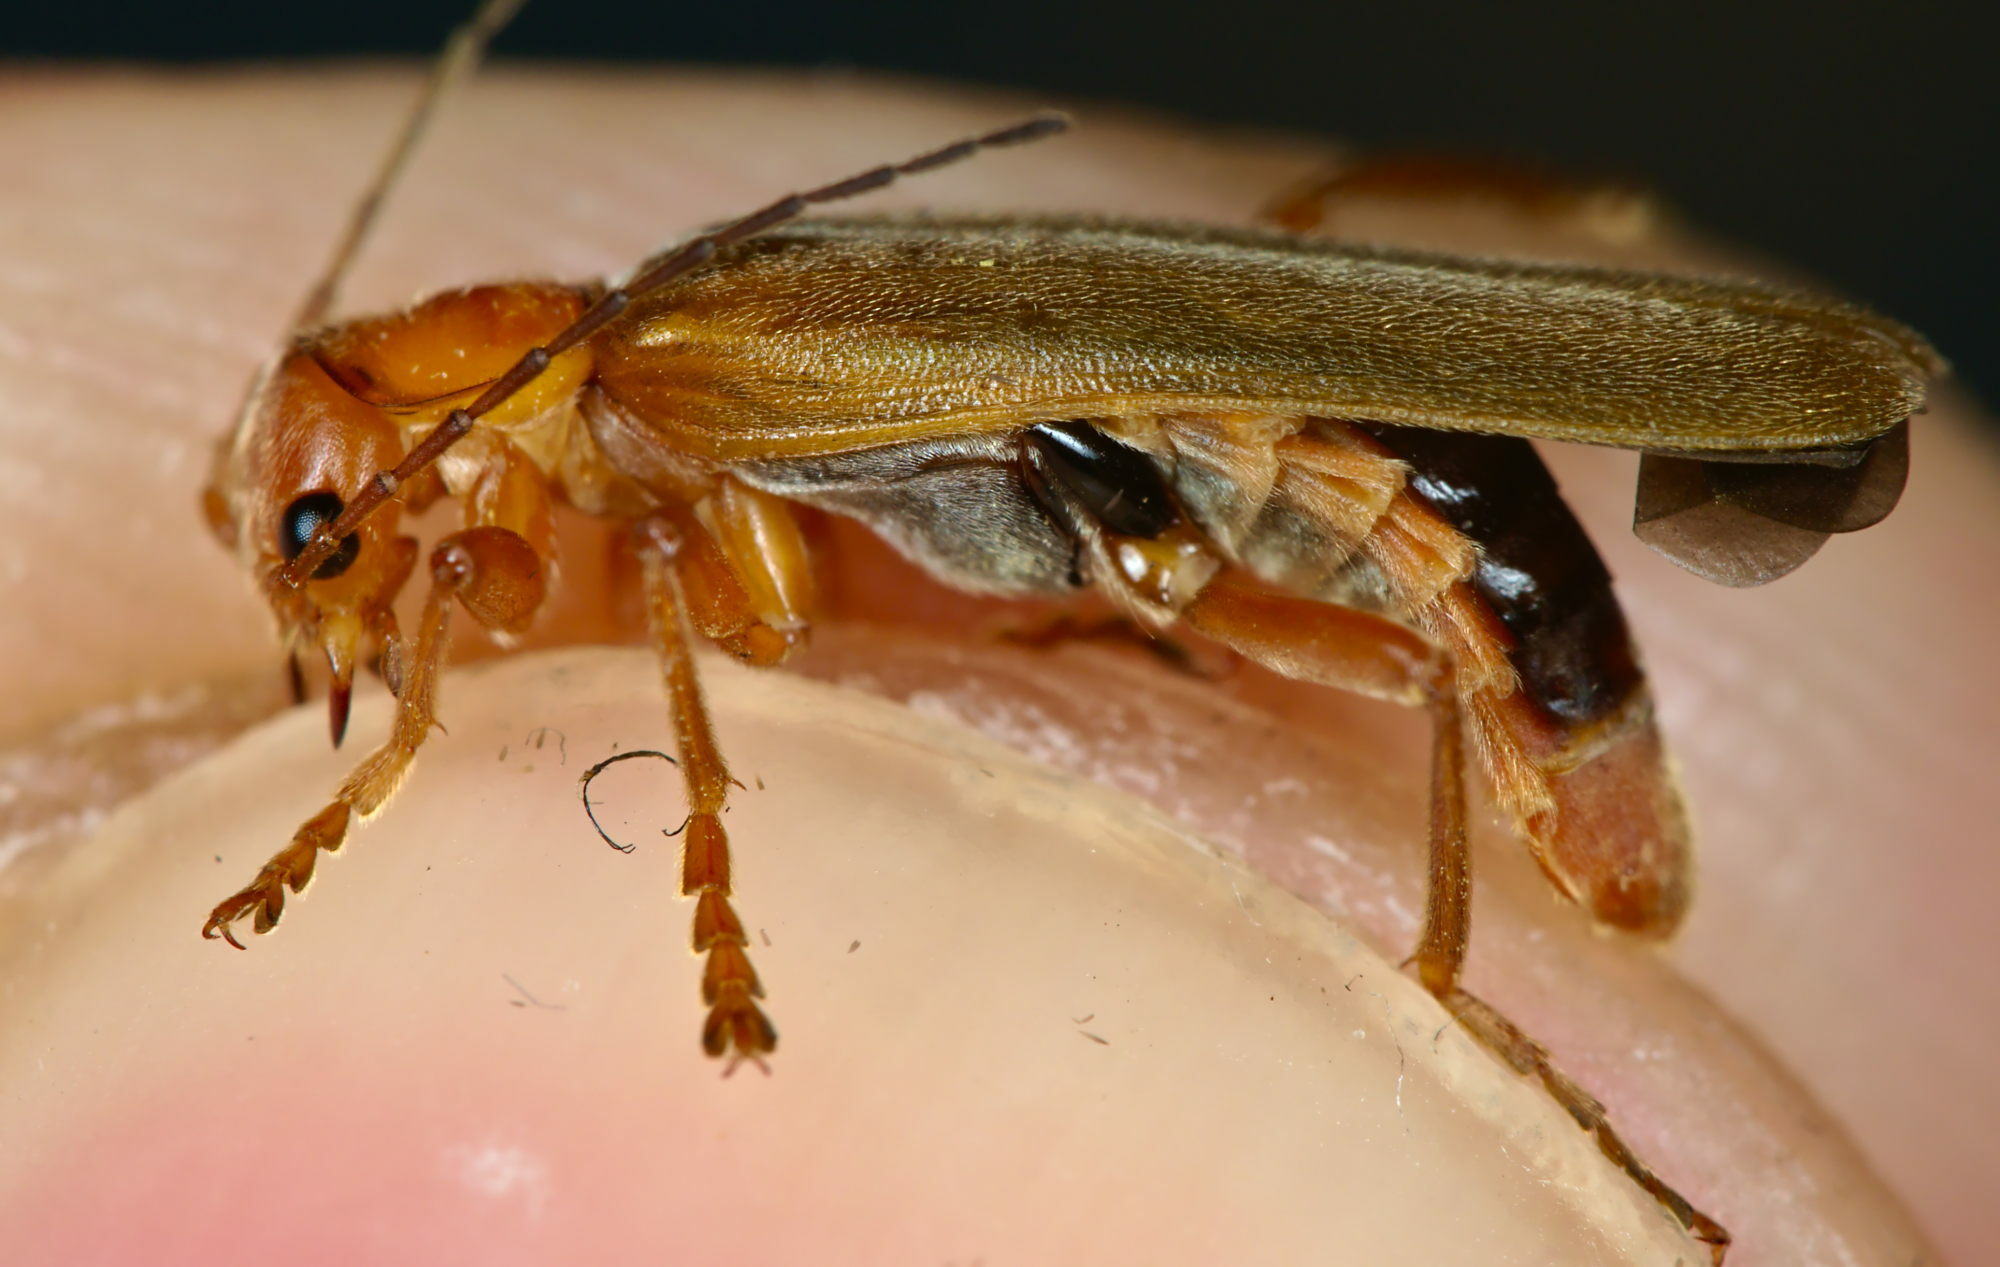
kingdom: Animalia
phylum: Arthropoda
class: Insecta
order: Coleoptera
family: Cantharidae
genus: Cantharis
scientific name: Cantharis rufa
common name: Red-spotted soldier beetle
